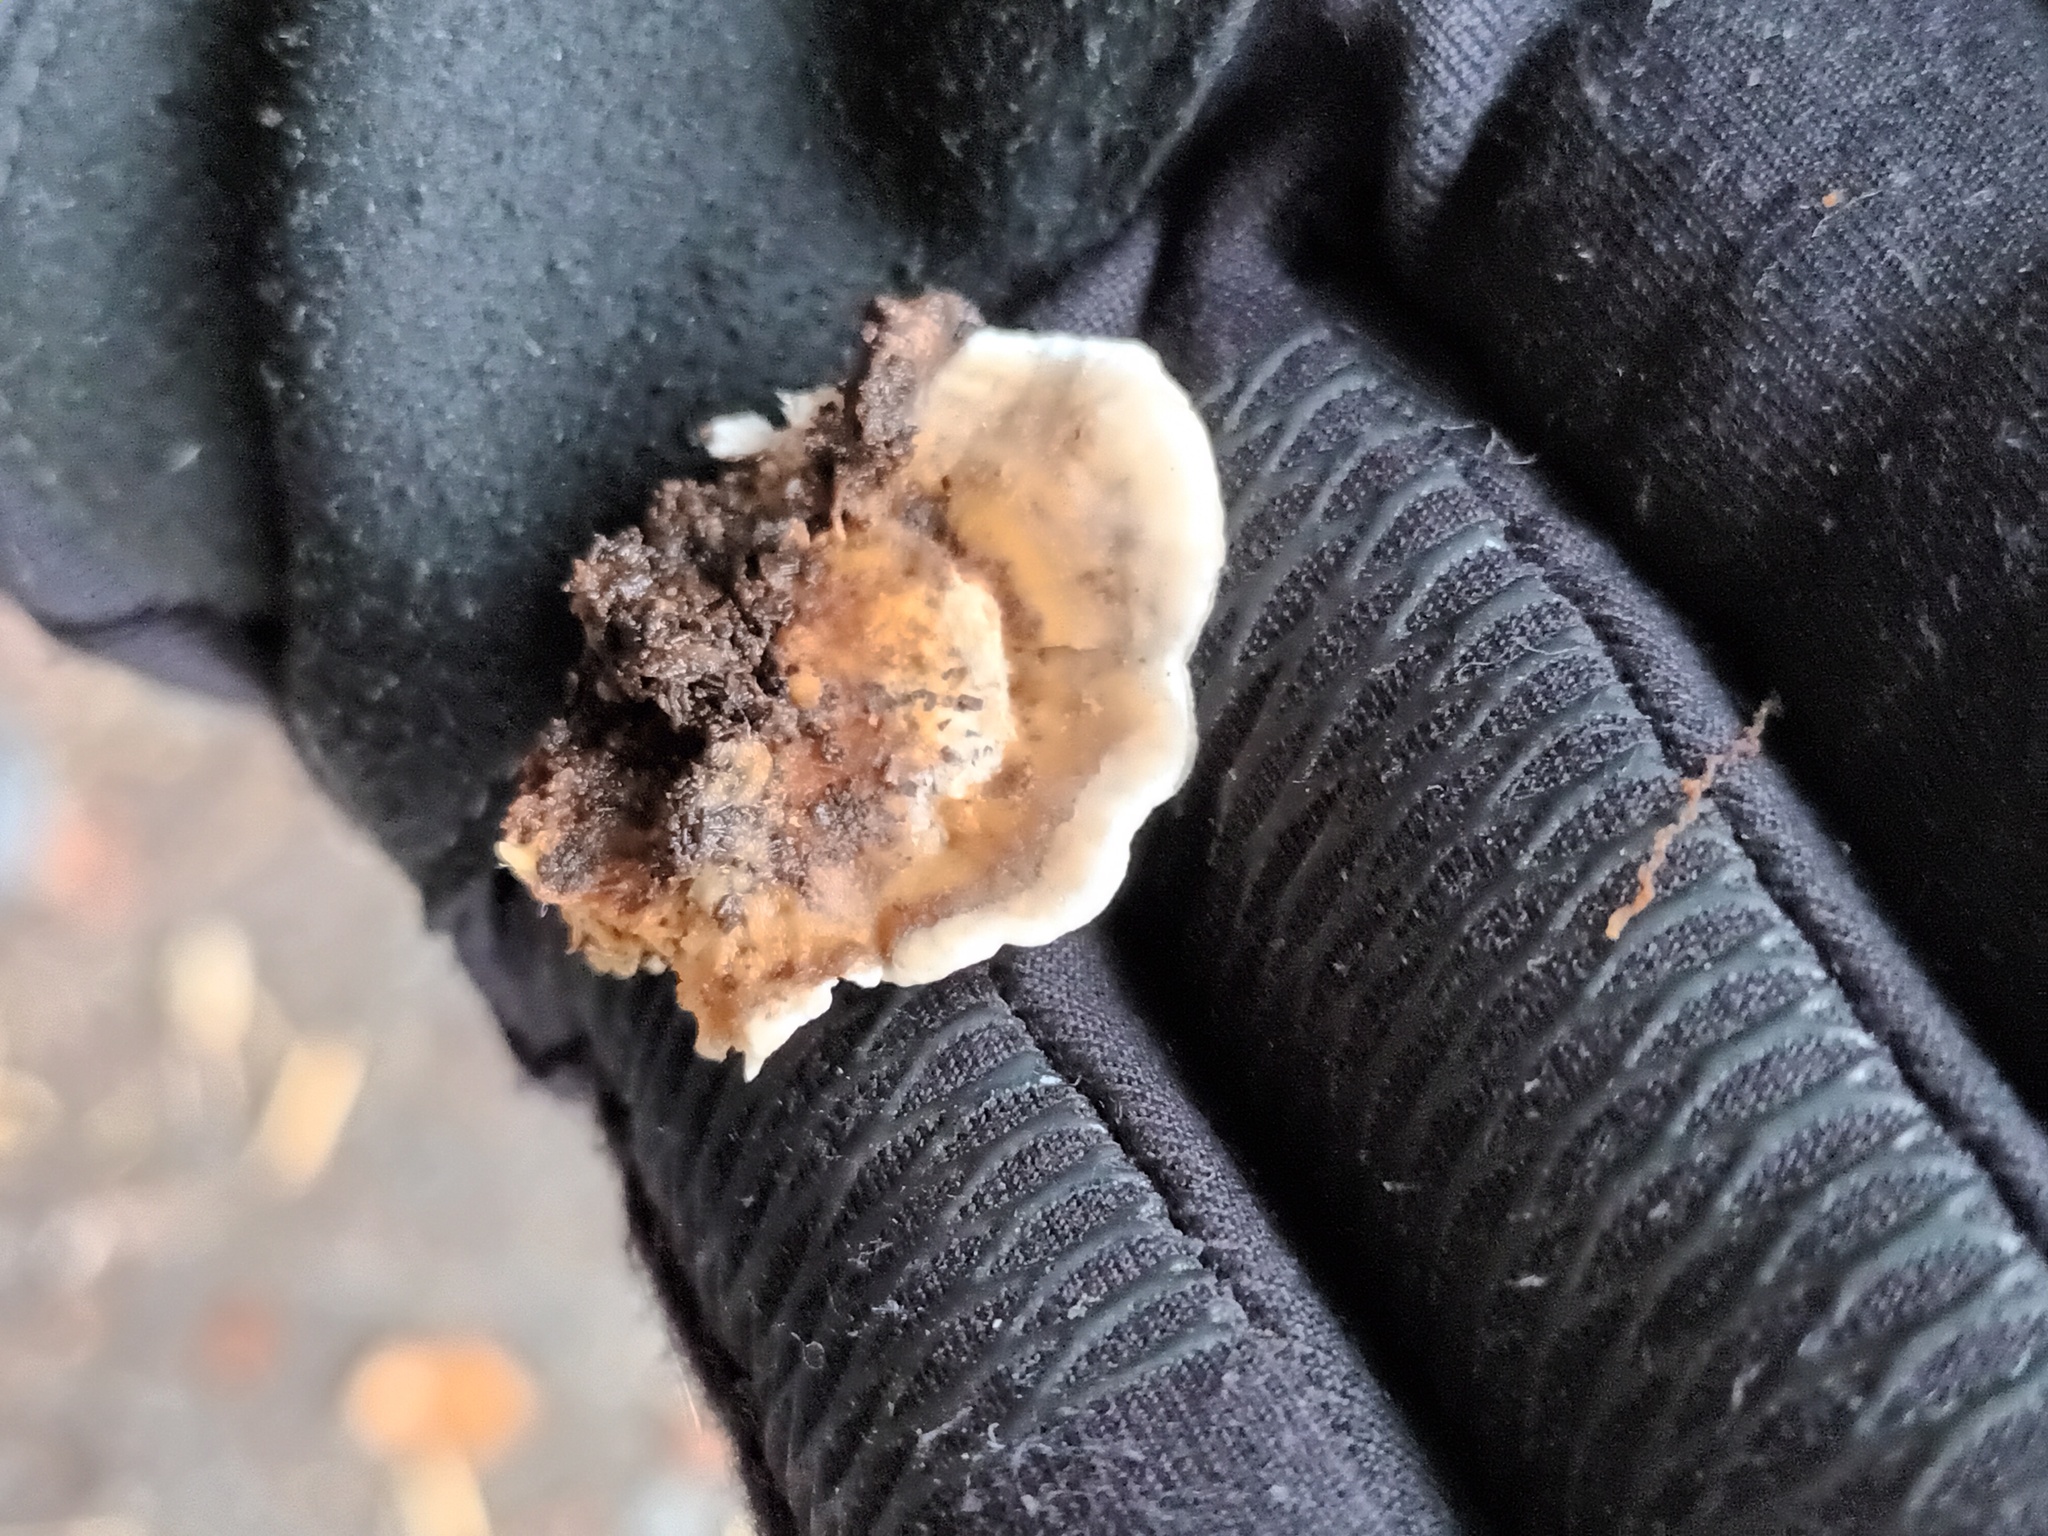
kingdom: Fungi
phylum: Basidiomycota
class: Agaricomycetes
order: Polyporales
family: Phanerochaetaceae
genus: Bjerkandera
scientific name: Bjerkandera adusta
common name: Smoky bracket
